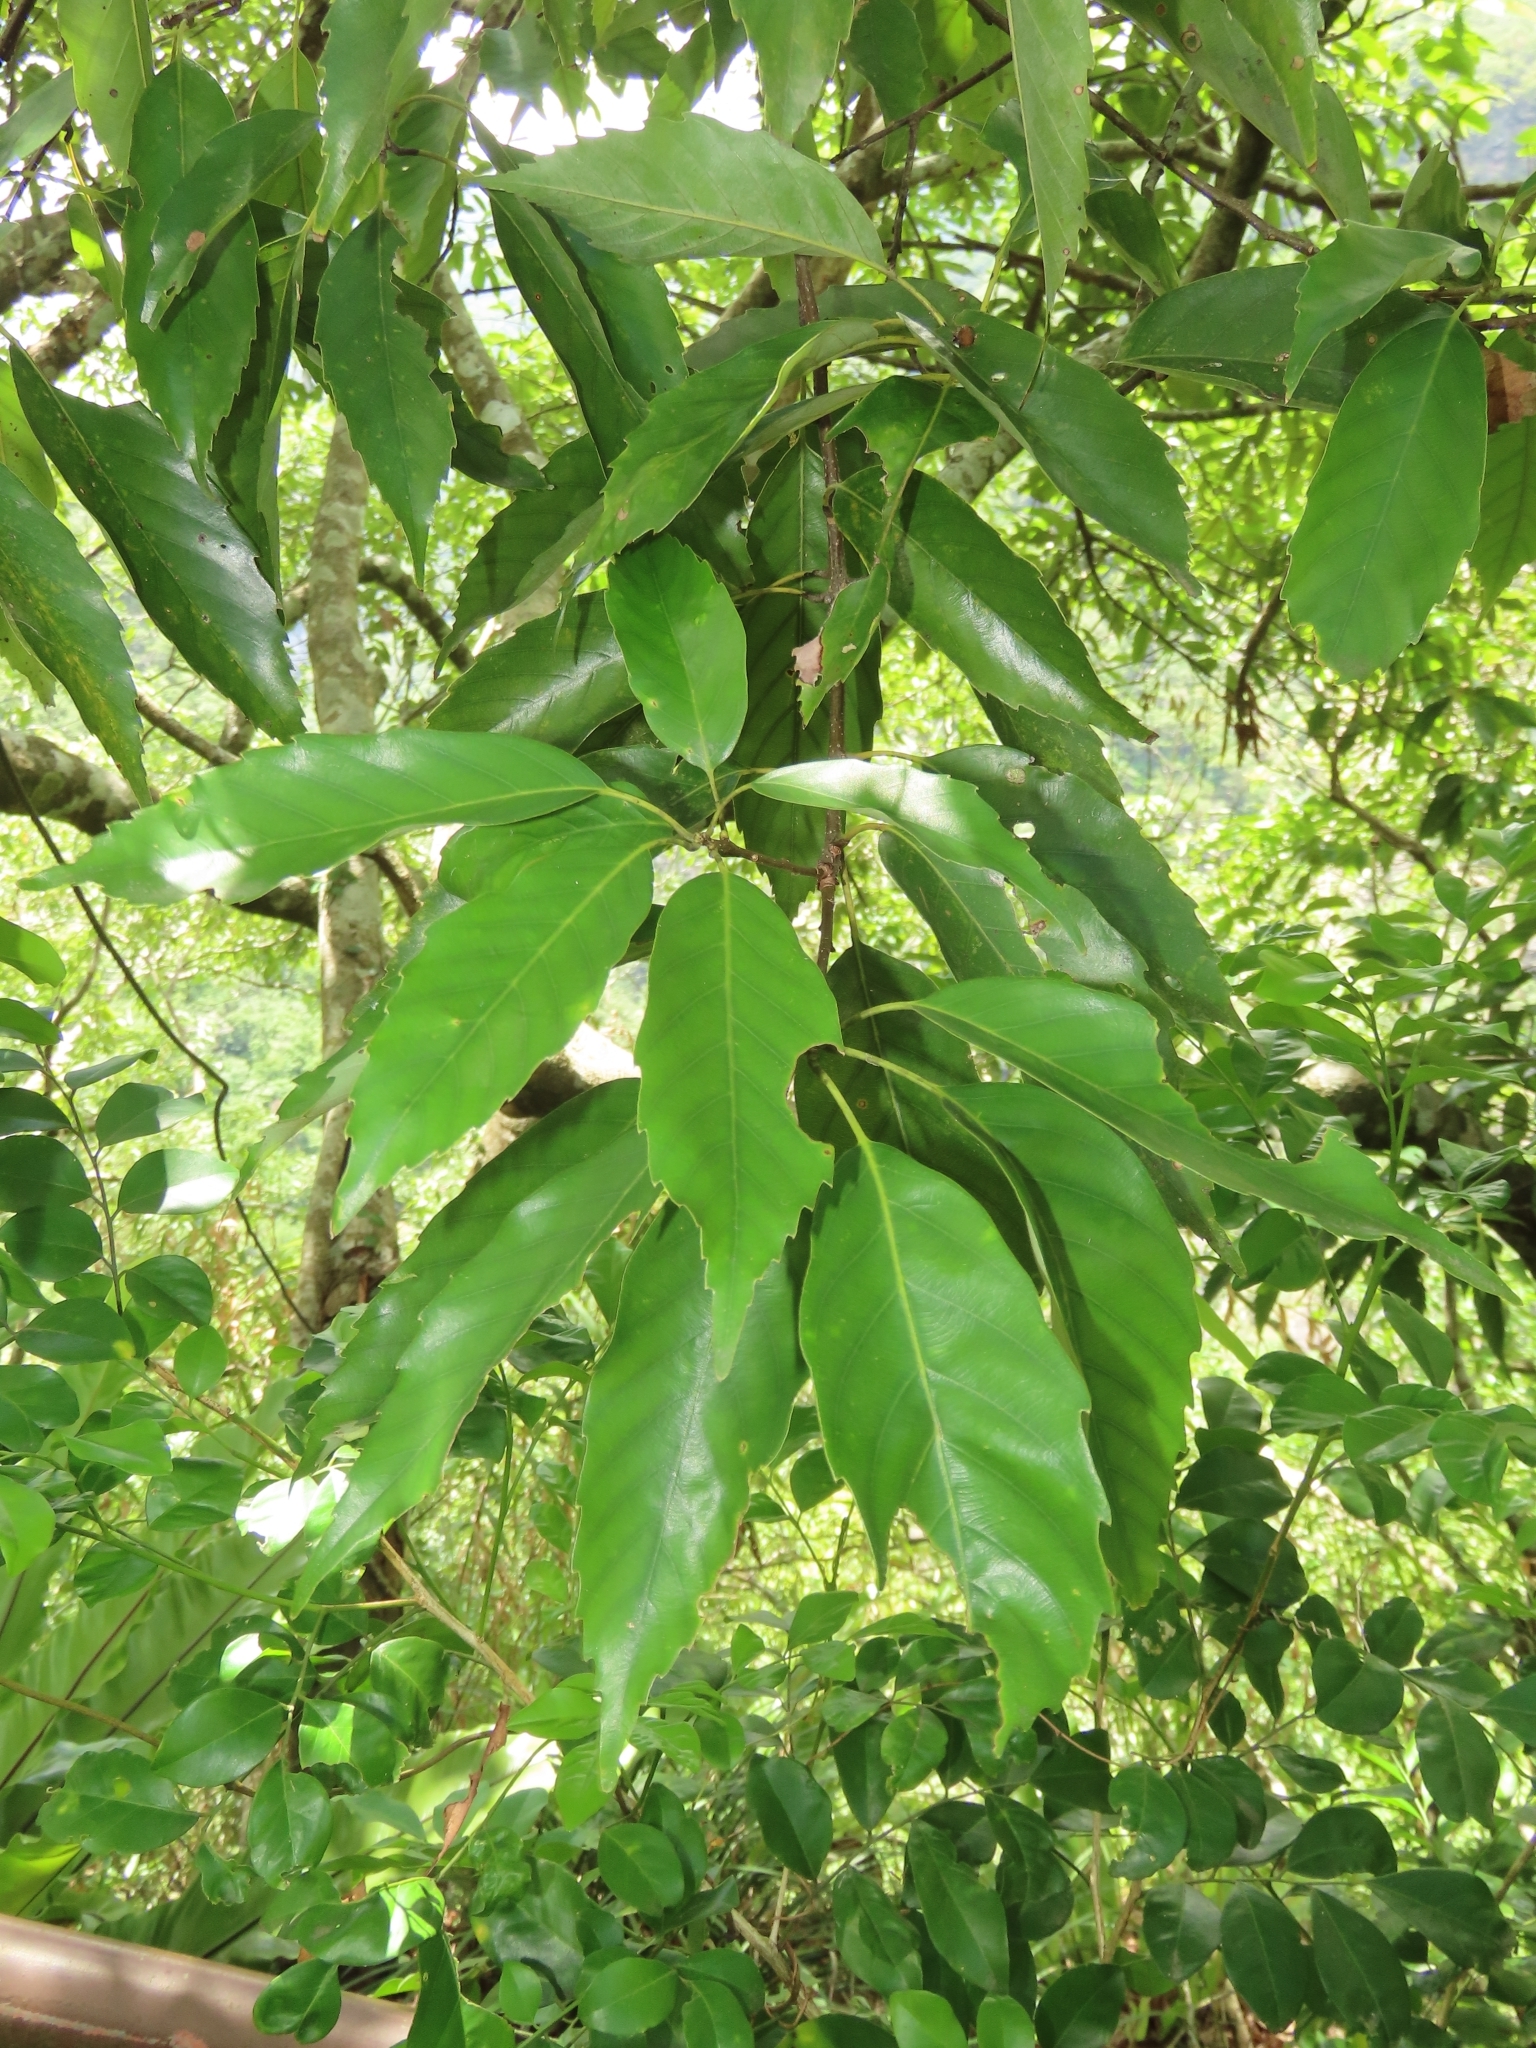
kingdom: Plantae
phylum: Tracheophyta
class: Magnoliopsida
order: Fagales
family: Fagaceae
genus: Quercus
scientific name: Quercus glauca
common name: Ring-cup oak
